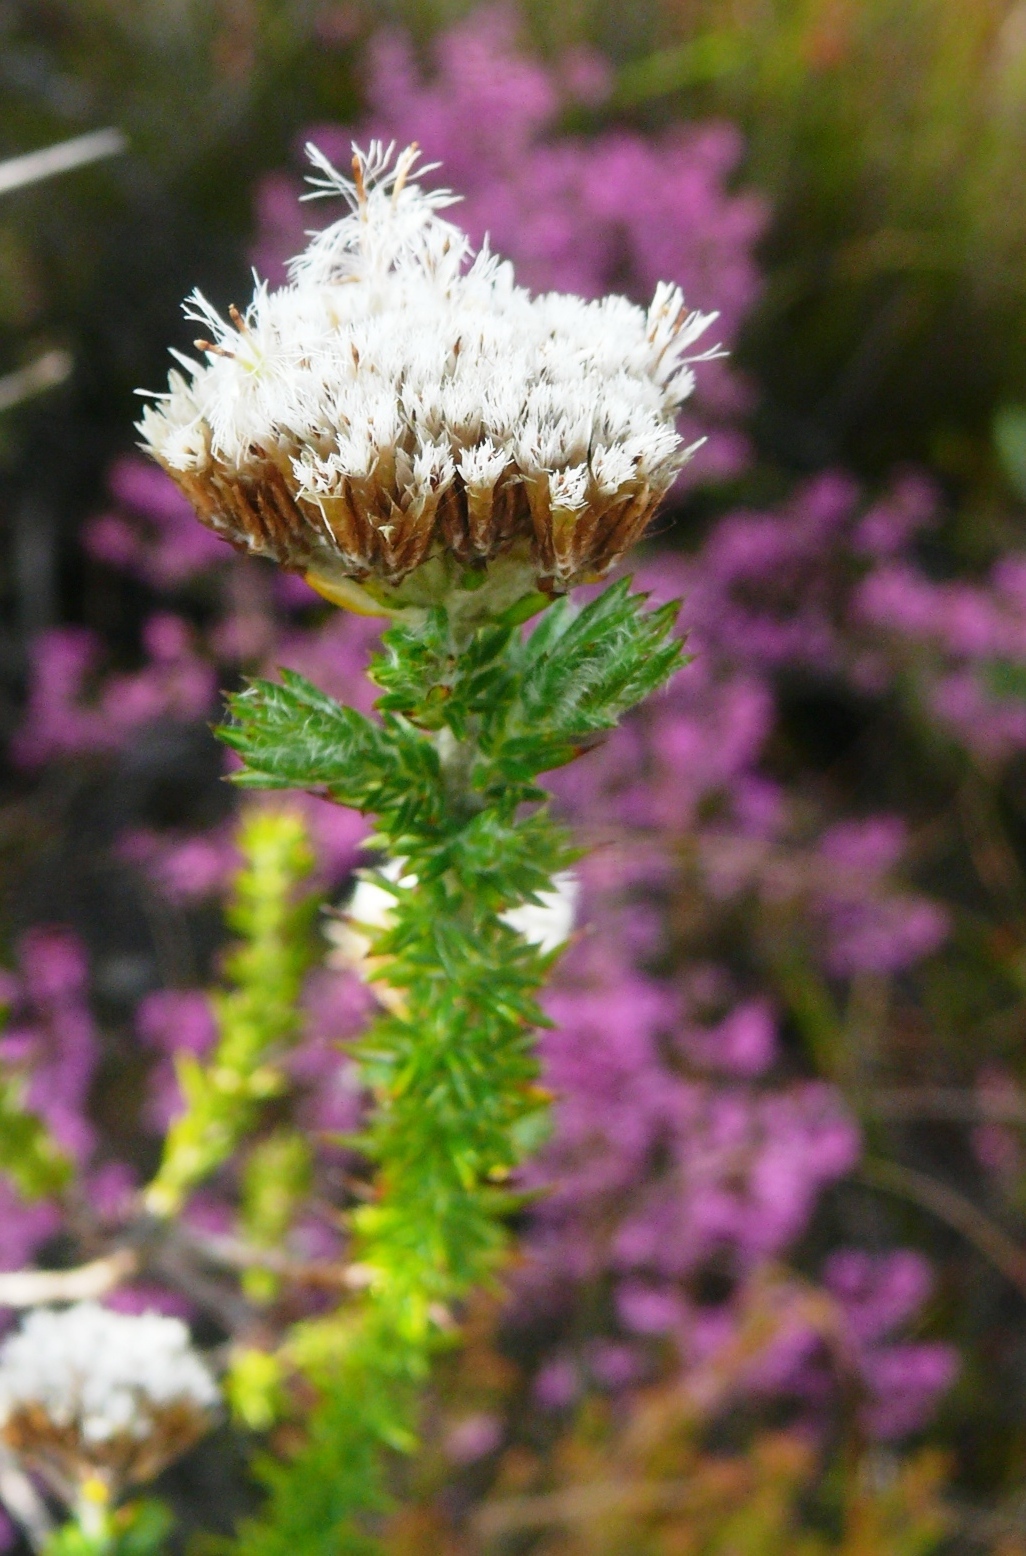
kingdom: Plantae
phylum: Tracheophyta
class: Magnoliopsida
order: Asterales
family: Asteraceae
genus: Metalasia
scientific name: Metalasia densa
